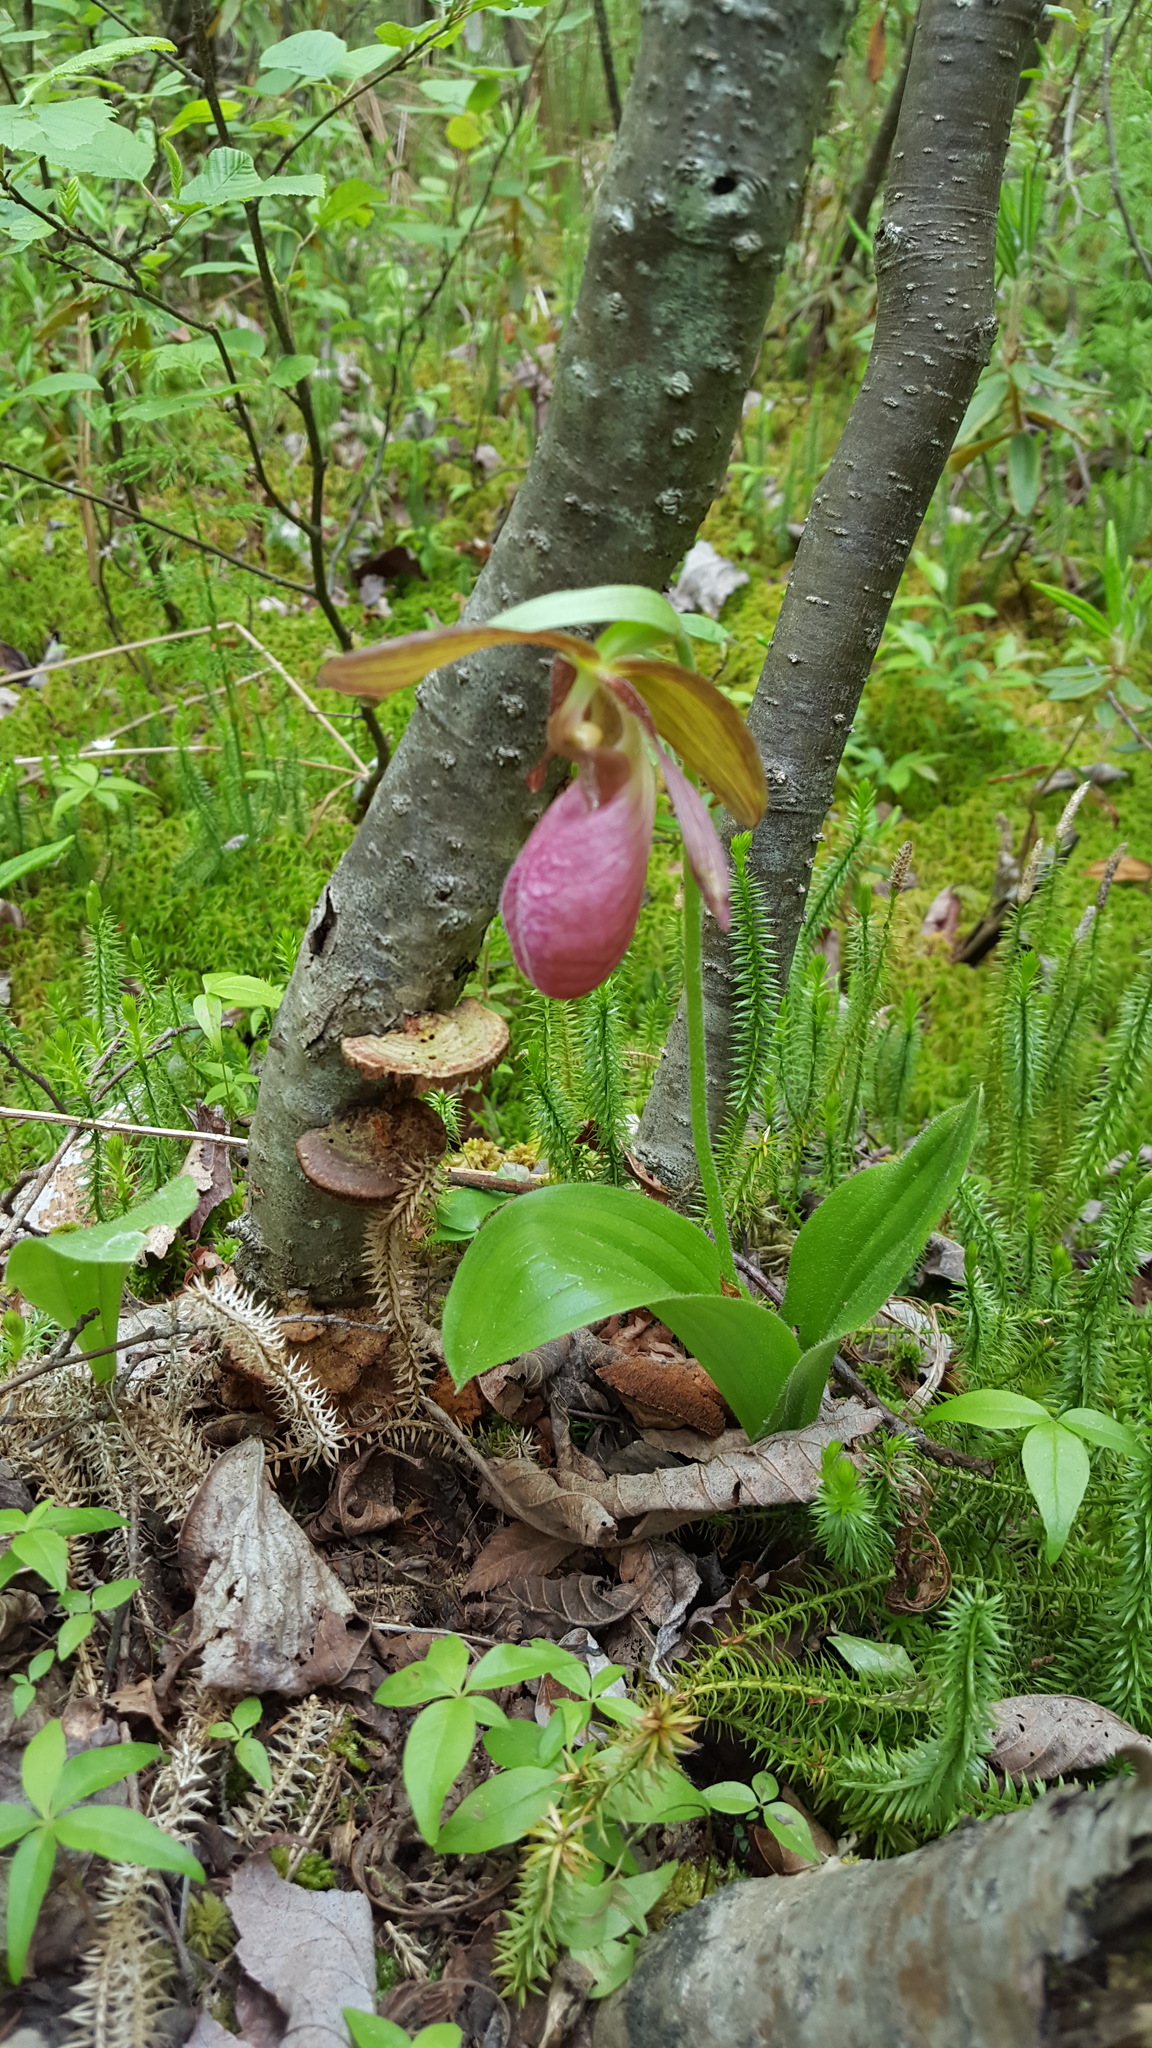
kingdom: Plantae
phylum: Tracheophyta
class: Liliopsida
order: Asparagales
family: Orchidaceae
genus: Cypripedium
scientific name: Cypripedium acaule
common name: Pink lady's-slipper
